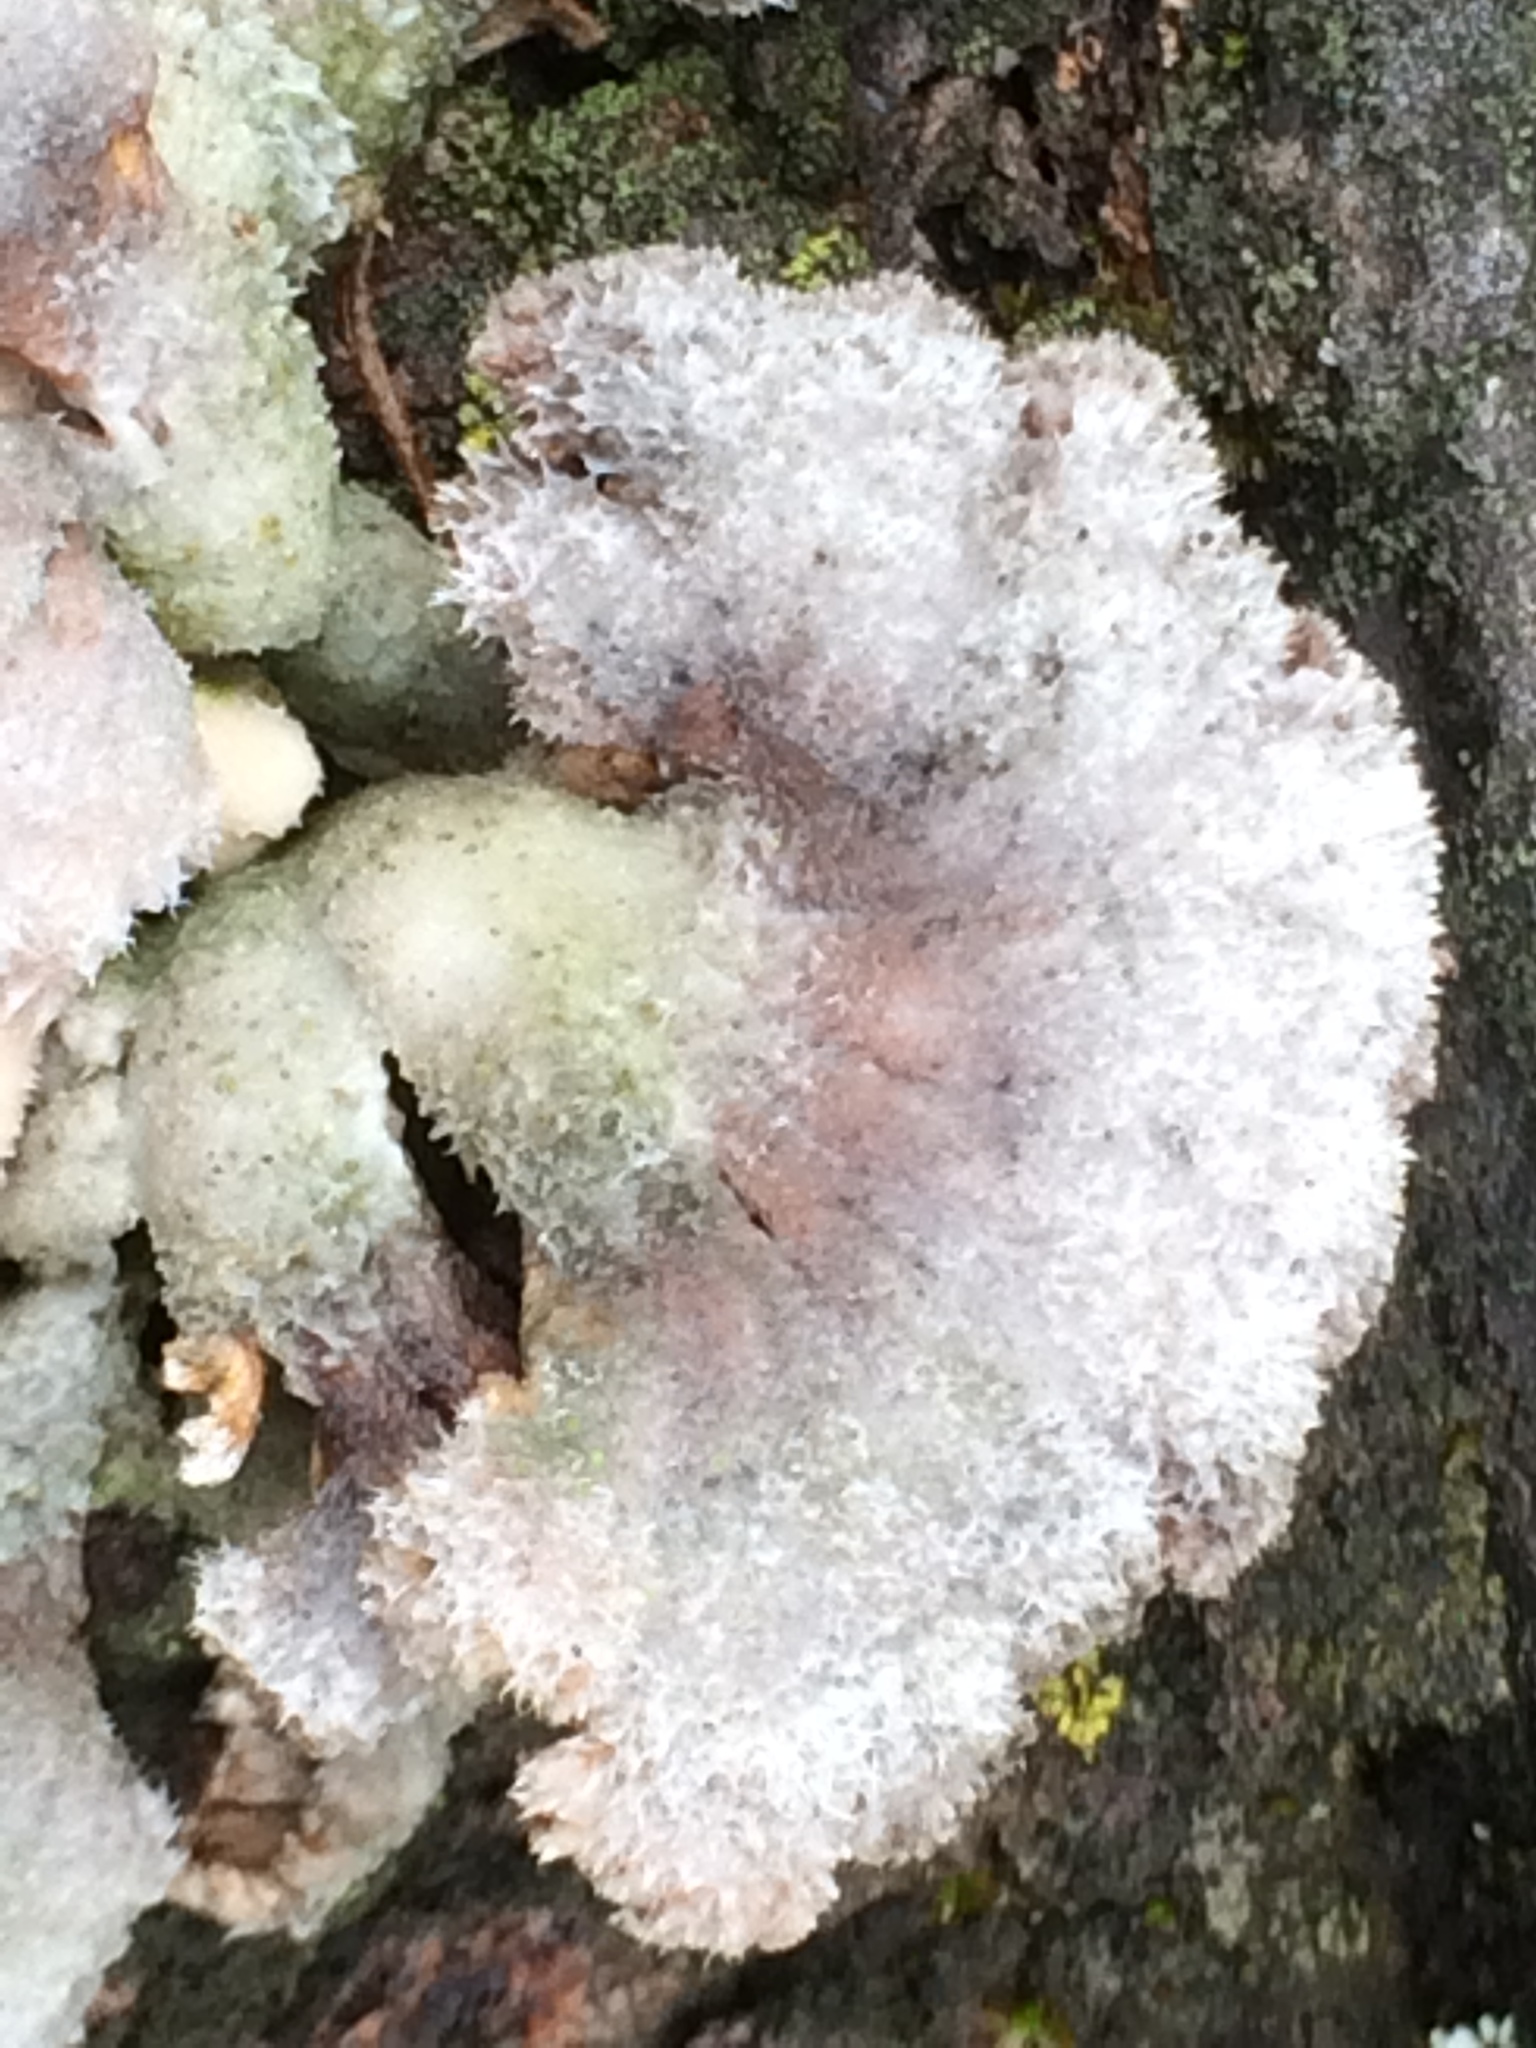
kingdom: Fungi
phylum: Basidiomycota
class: Agaricomycetes
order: Agaricales
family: Schizophyllaceae
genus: Schizophyllum
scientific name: Schizophyllum commune
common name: Common porecrust
